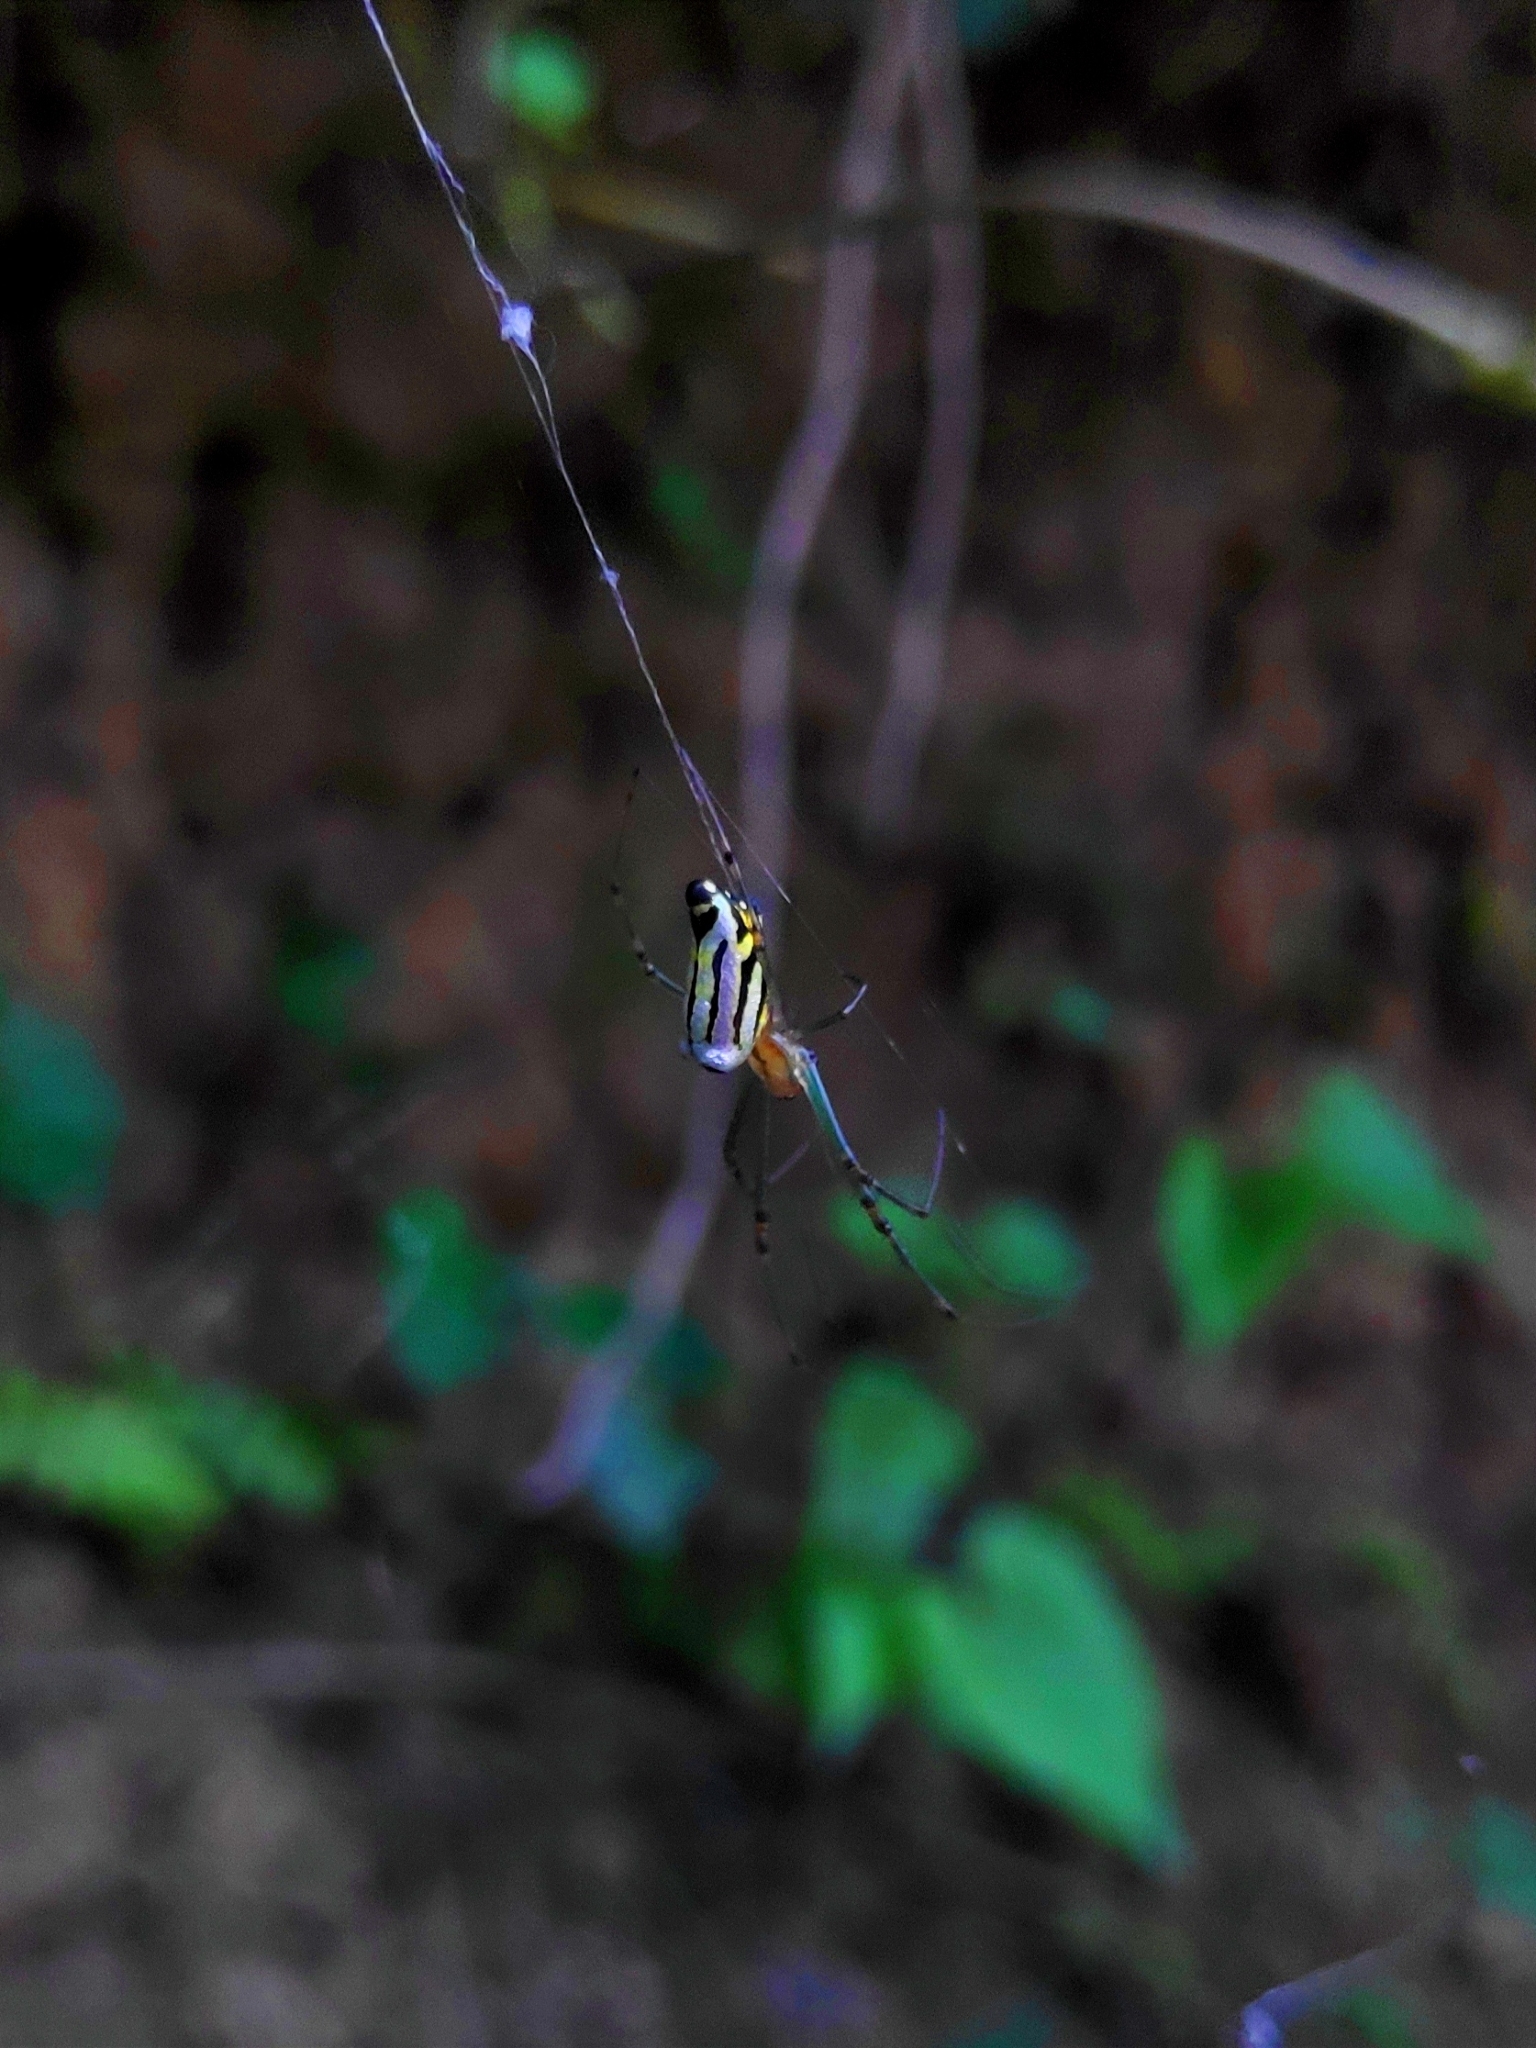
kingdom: Animalia
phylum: Arthropoda
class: Arachnida
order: Araneae
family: Tetragnathidae
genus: Leucauge
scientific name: Leucauge decorata
